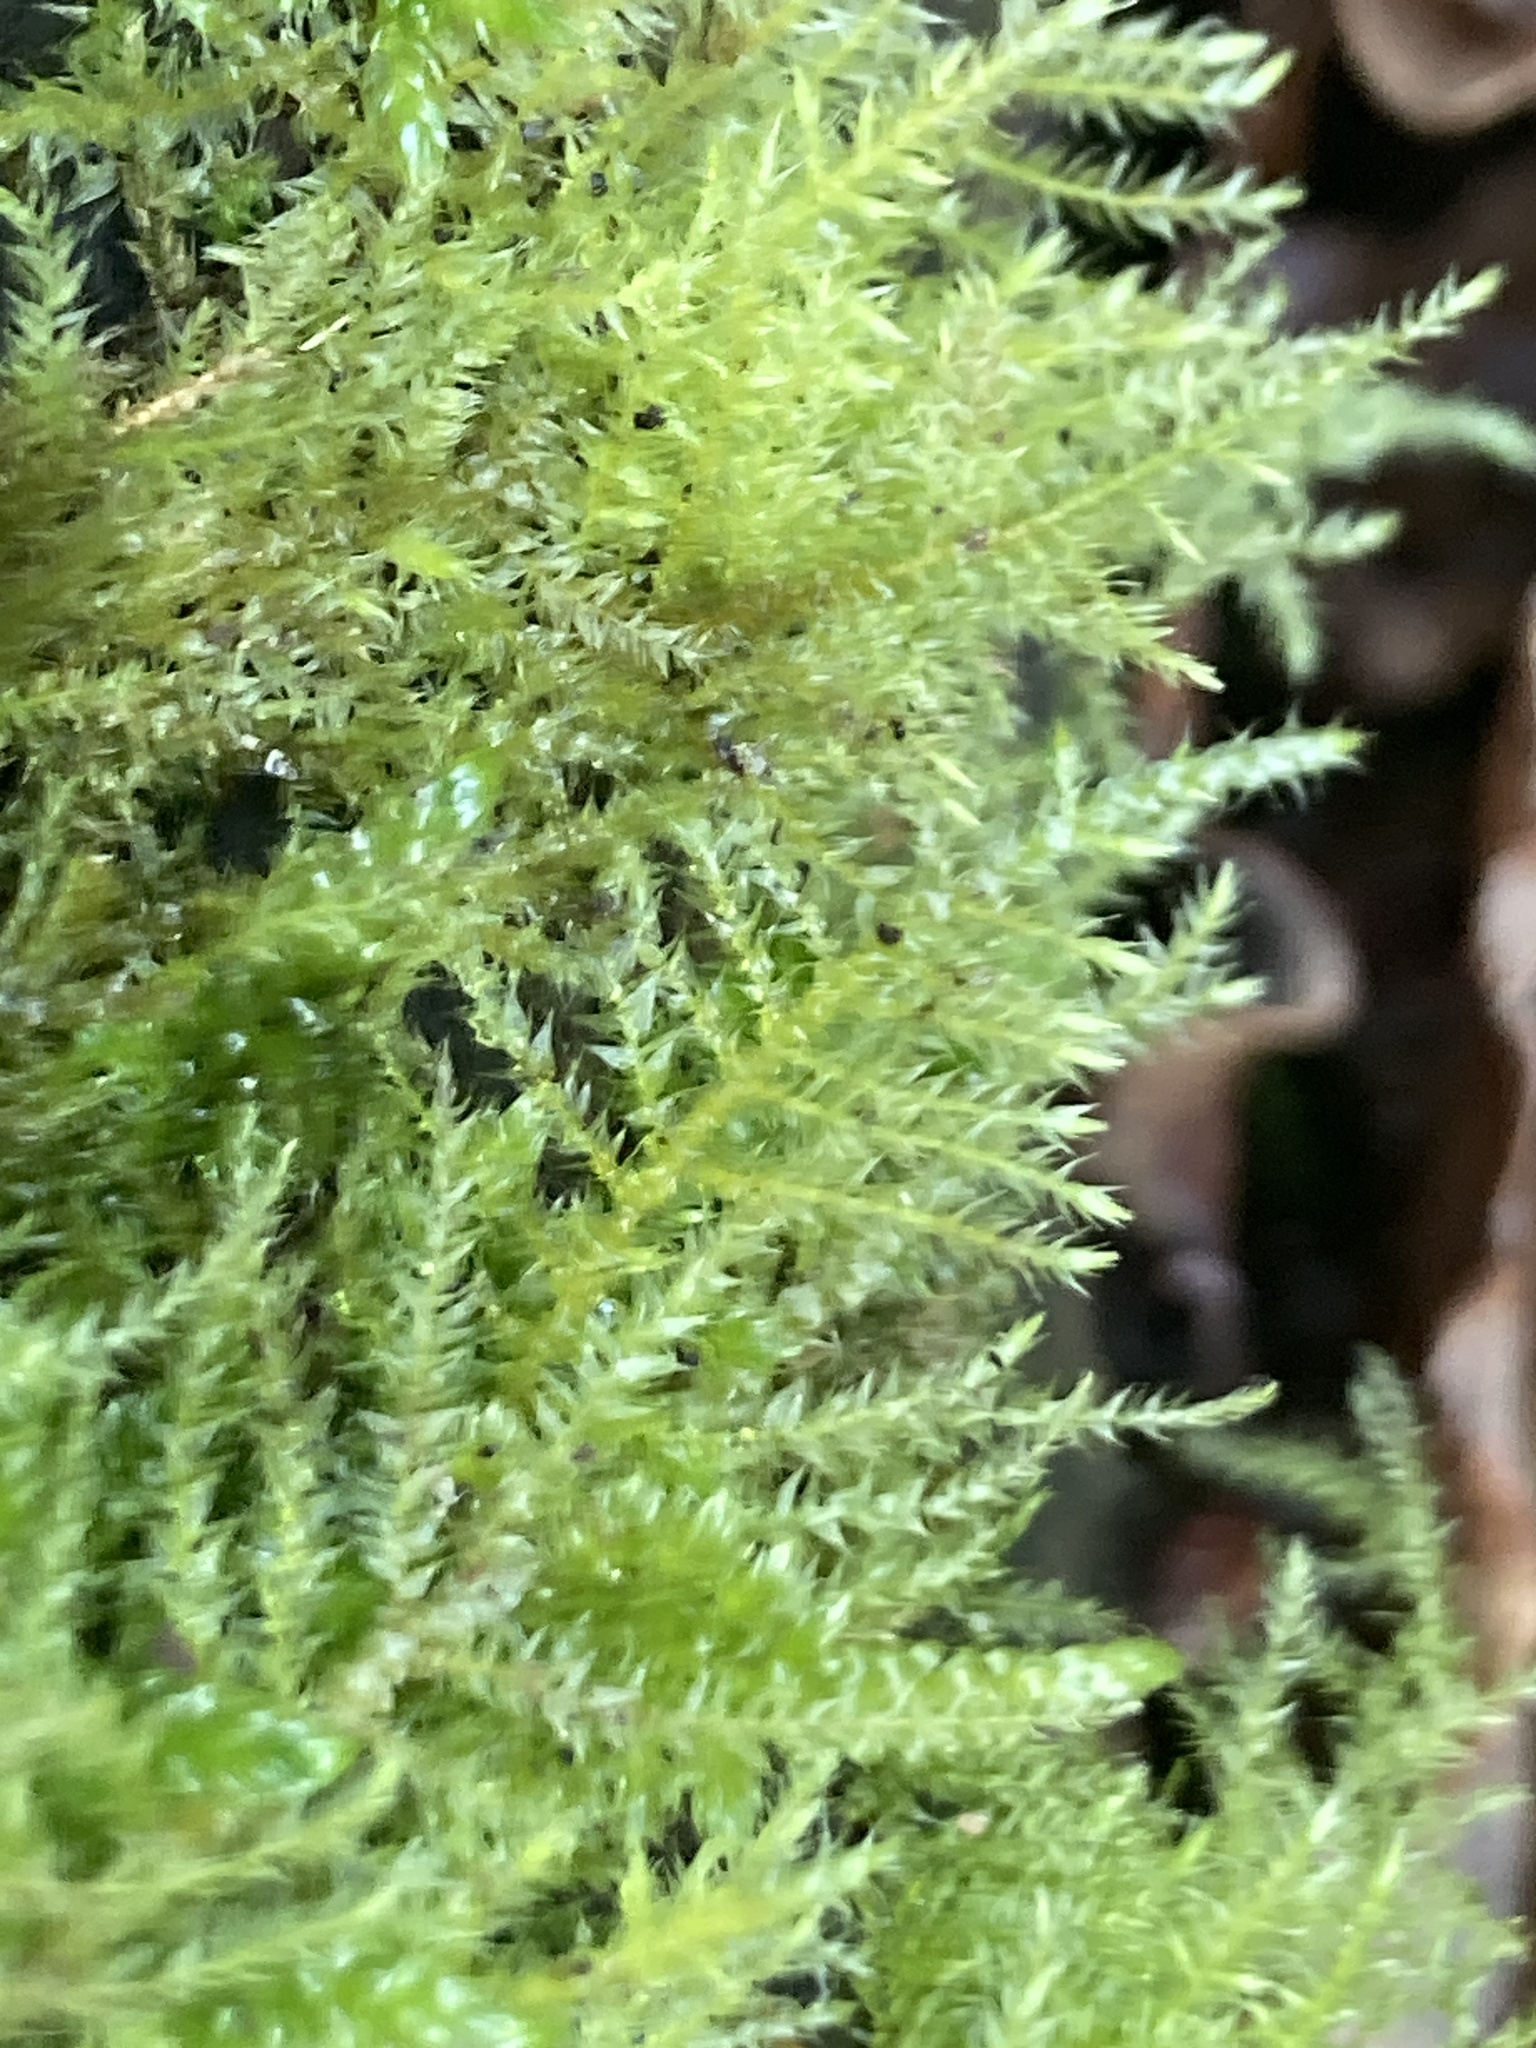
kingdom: Plantae
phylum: Bryophyta
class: Bryopsida
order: Hypnales
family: Brachytheciaceae
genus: Kindbergia
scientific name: Kindbergia praelonga
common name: Slender beaked moss
